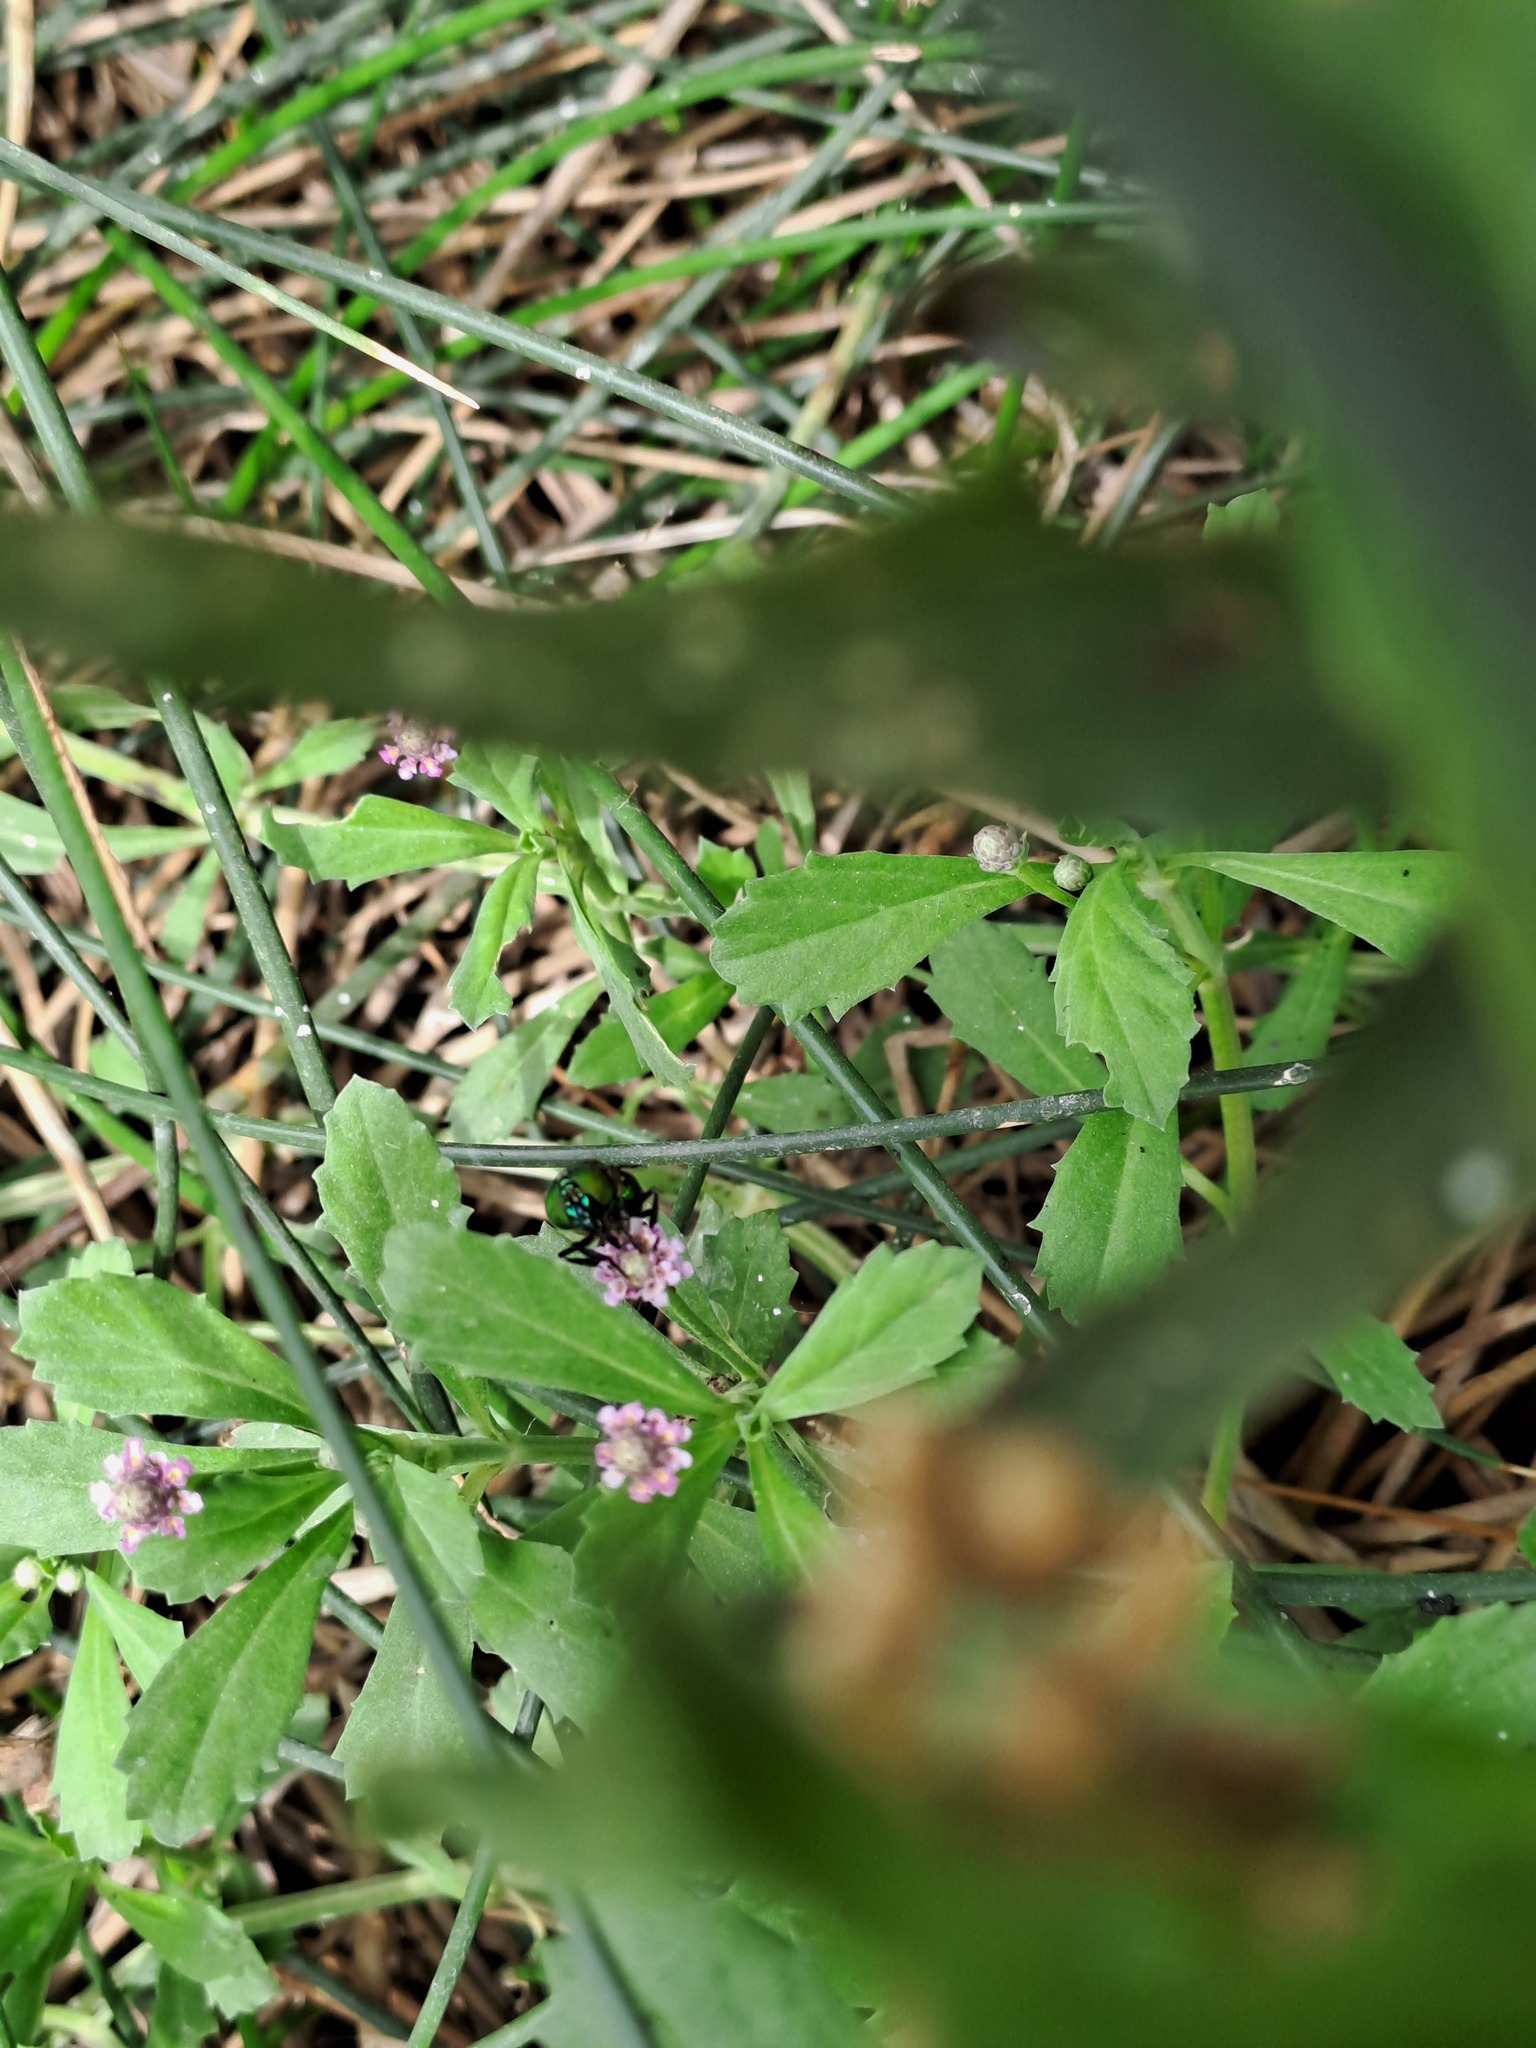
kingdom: Animalia
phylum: Arthropoda
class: Insecta
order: Diptera
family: Syrphidae
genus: Ornidia
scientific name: Ornidia obesa
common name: Syrphid fly
